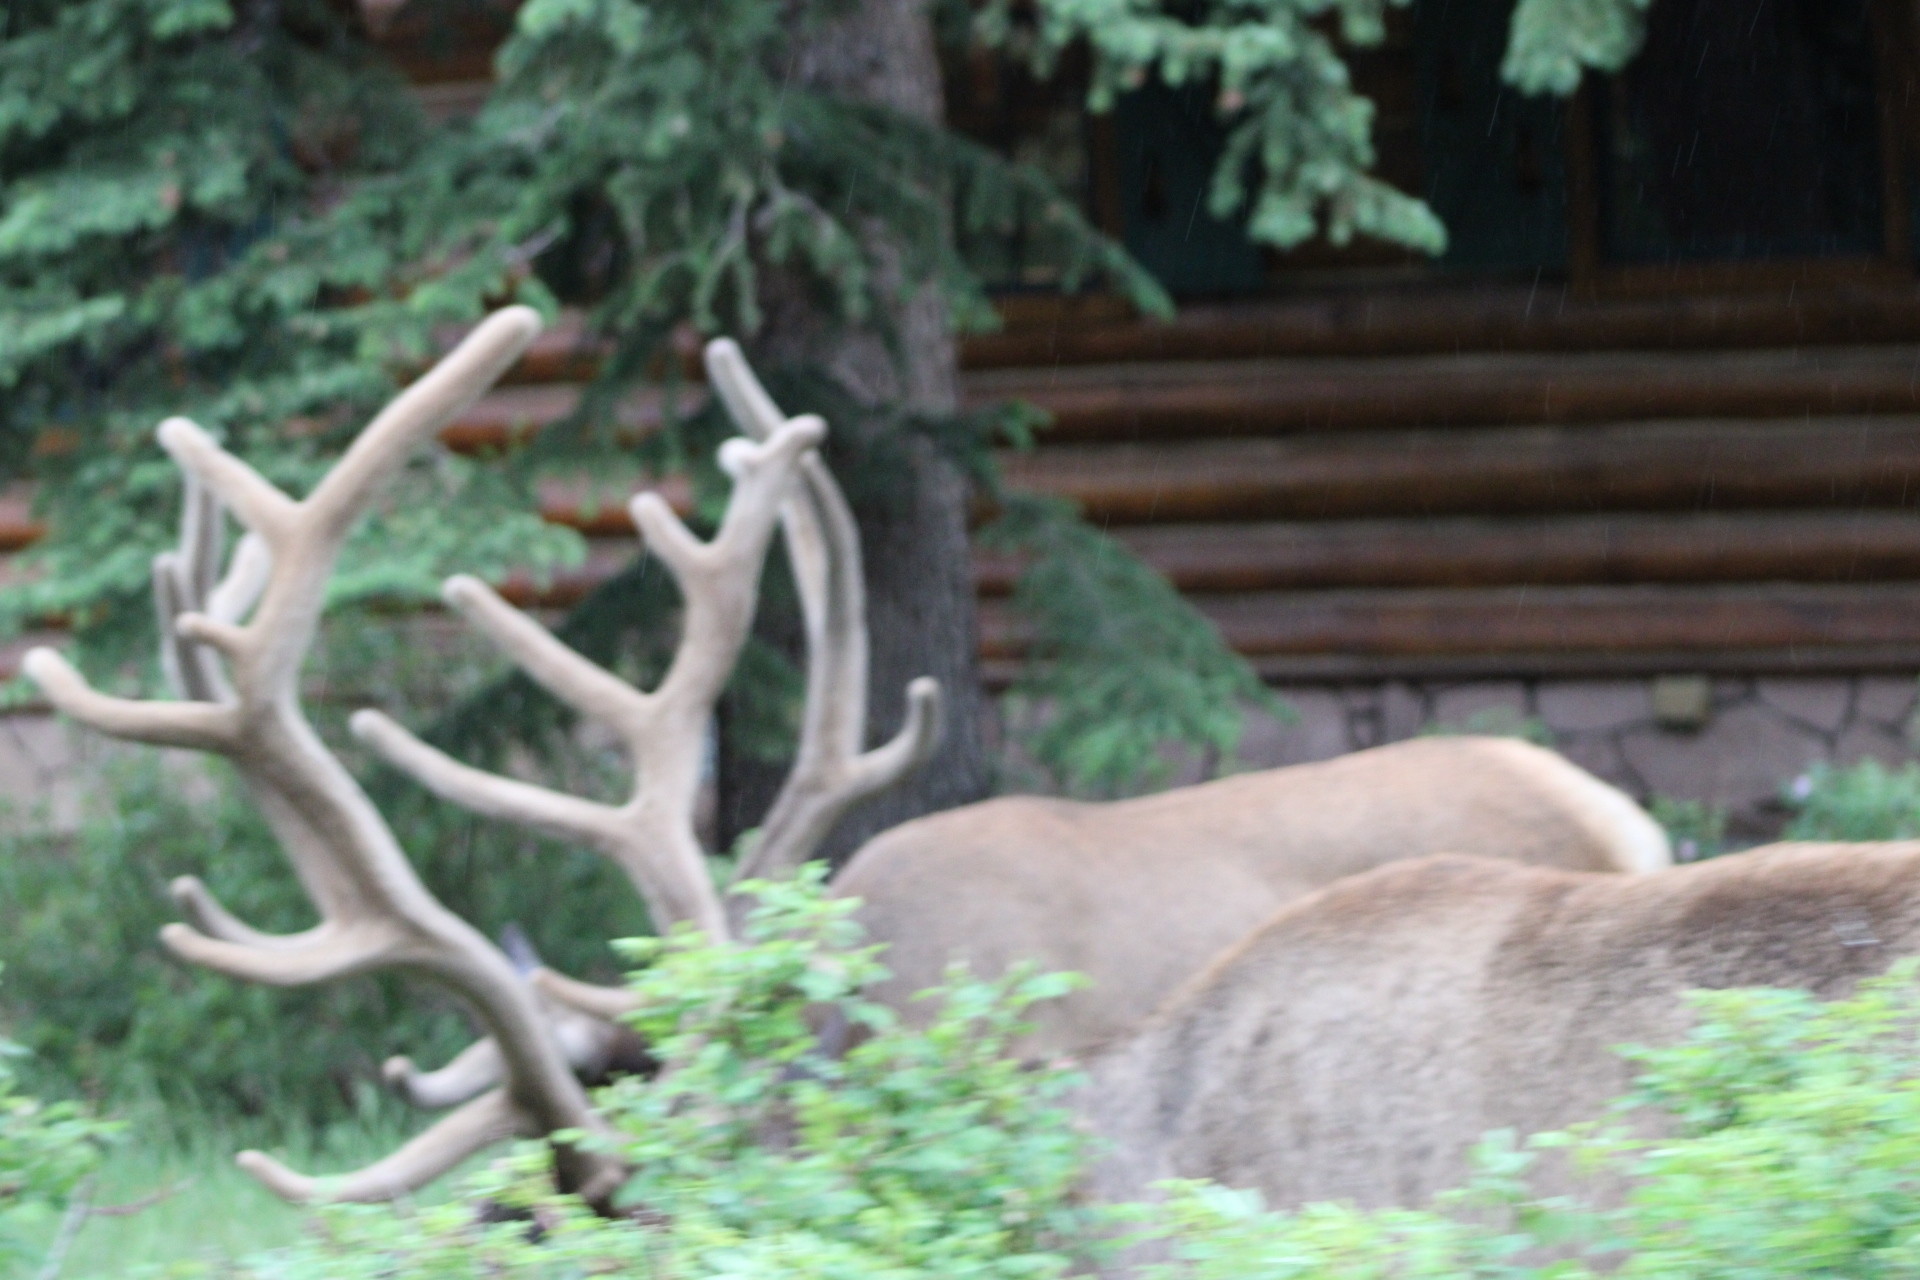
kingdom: Animalia
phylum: Chordata
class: Mammalia
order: Artiodactyla
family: Cervidae
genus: Cervus
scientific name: Cervus elaphus
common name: Red deer
